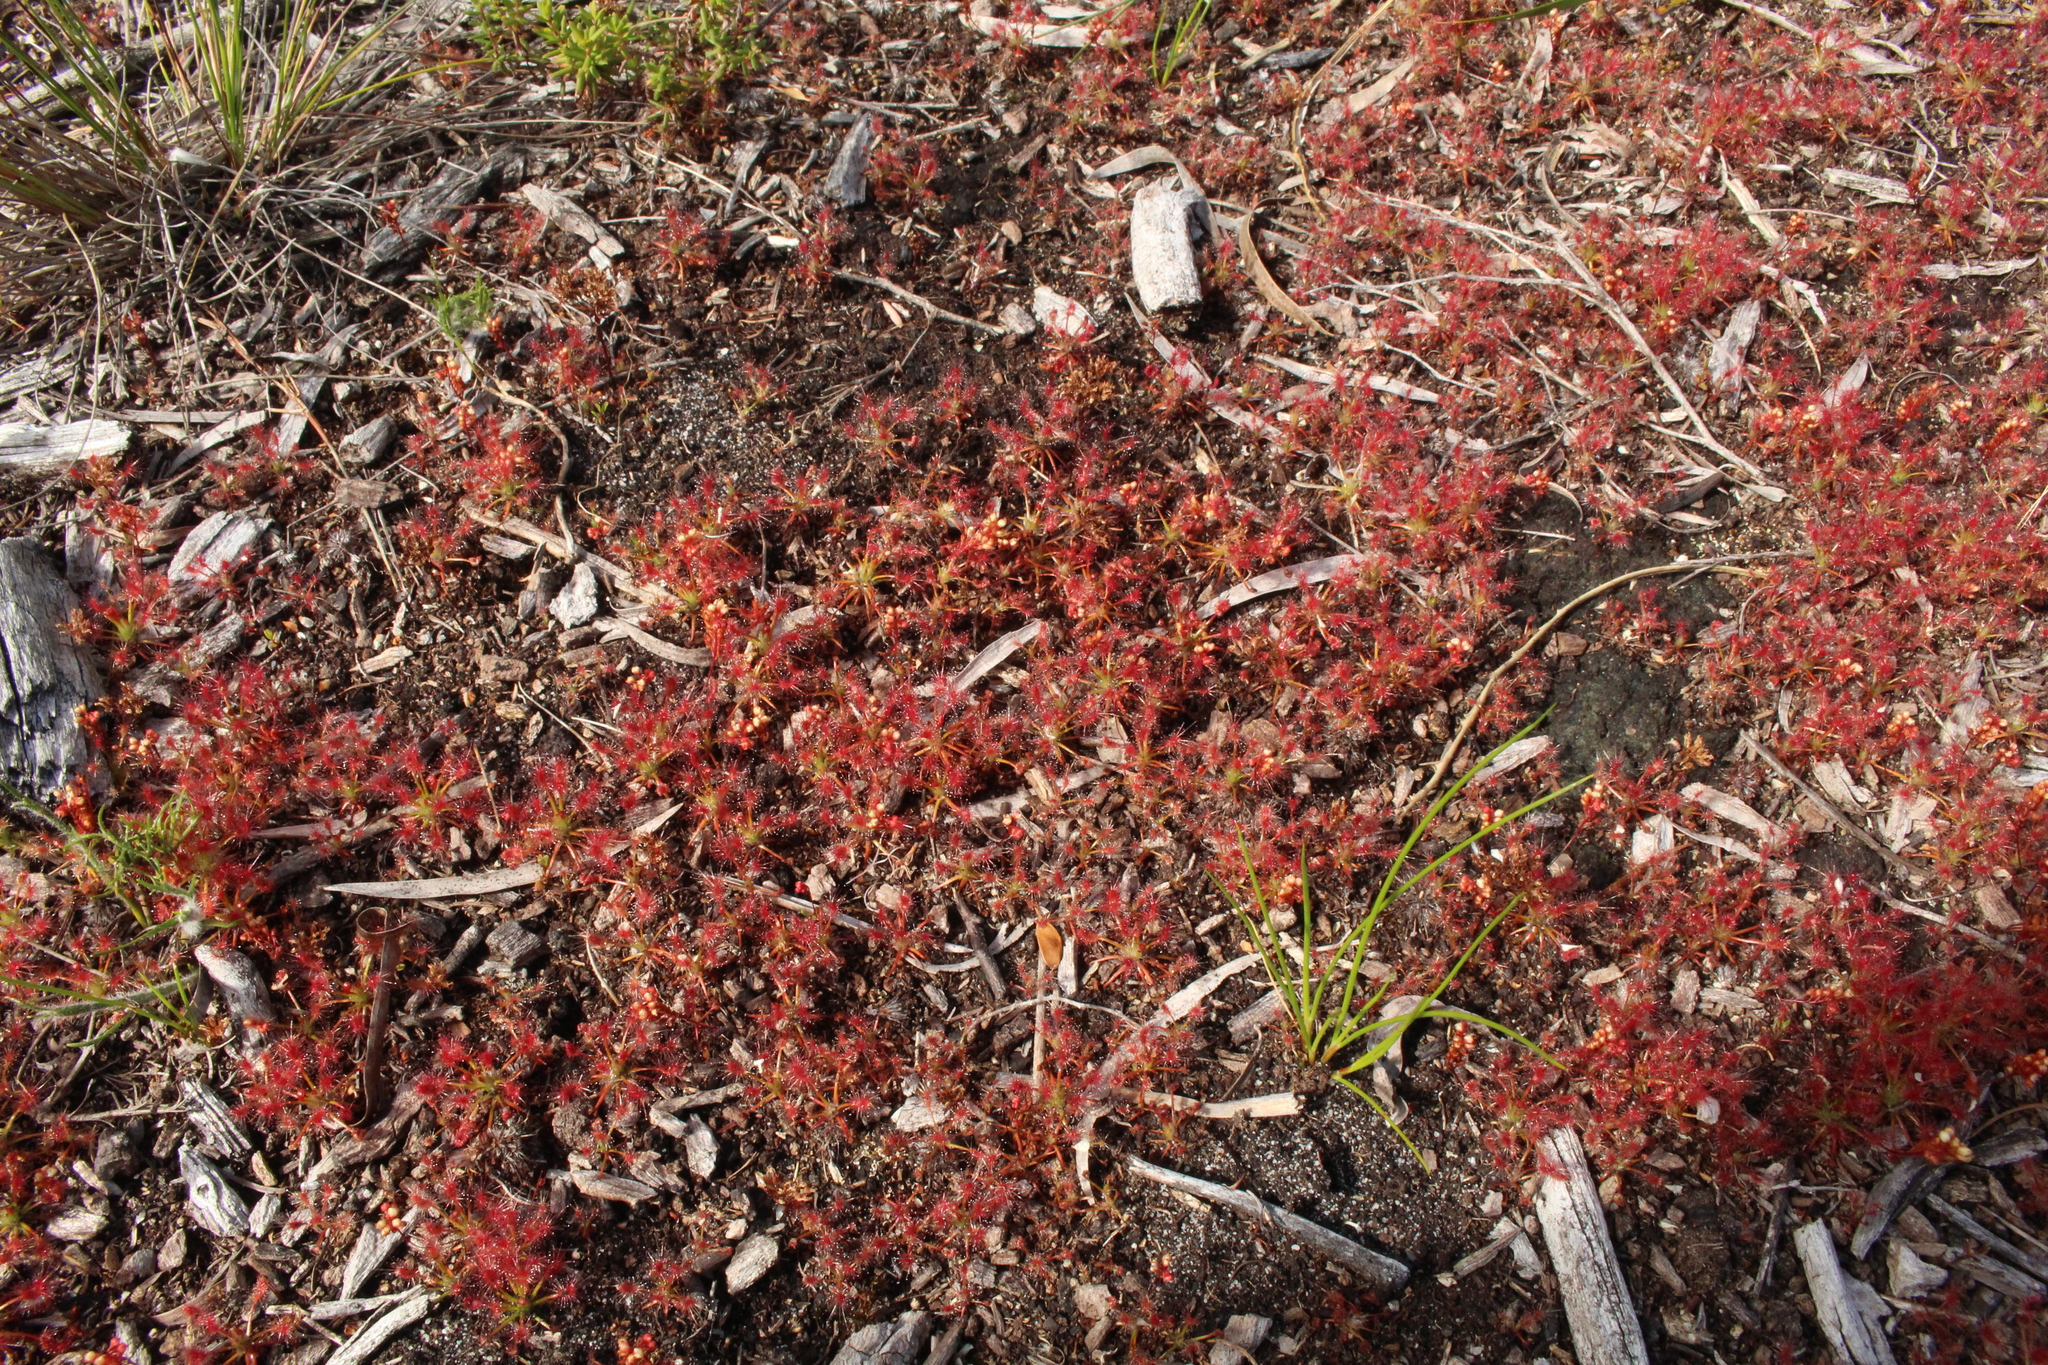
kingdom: Plantae
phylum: Tracheophyta
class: Magnoliopsida
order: Caryophyllales
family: Droseraceae
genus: Drosera
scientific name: Drosera paleacea
